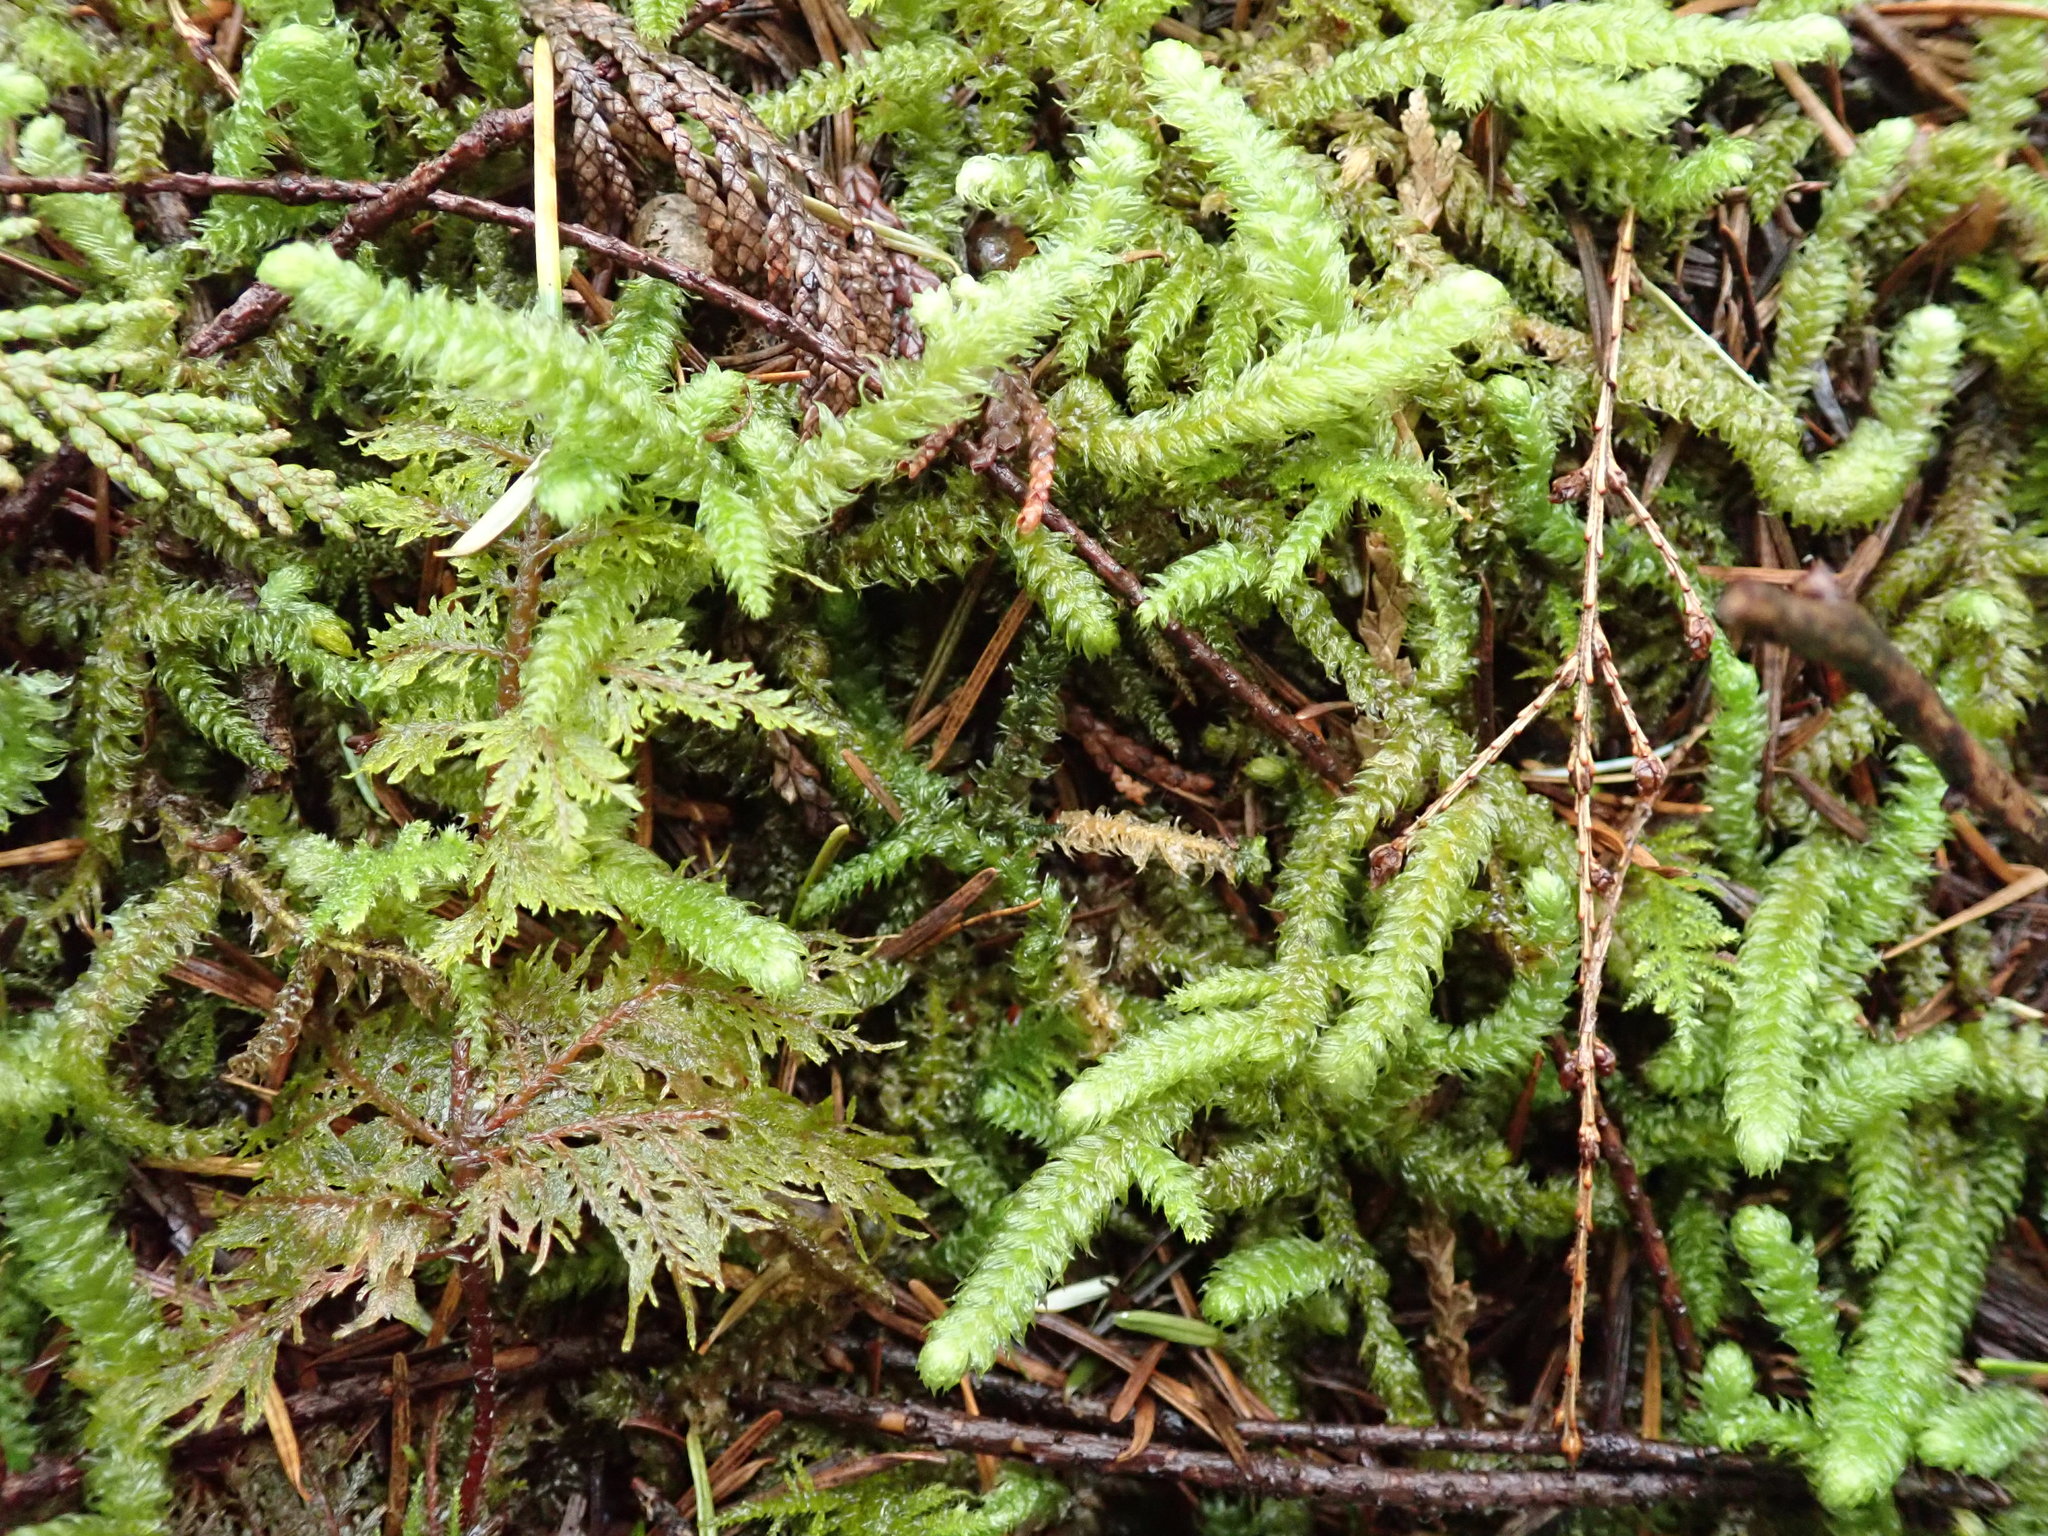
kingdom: Plantae
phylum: Bryophyta
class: Bryopsida
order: Hypnales
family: Hylocomiaceae
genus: Rhytidiopsis
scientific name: Rhytidiopsis robusta
